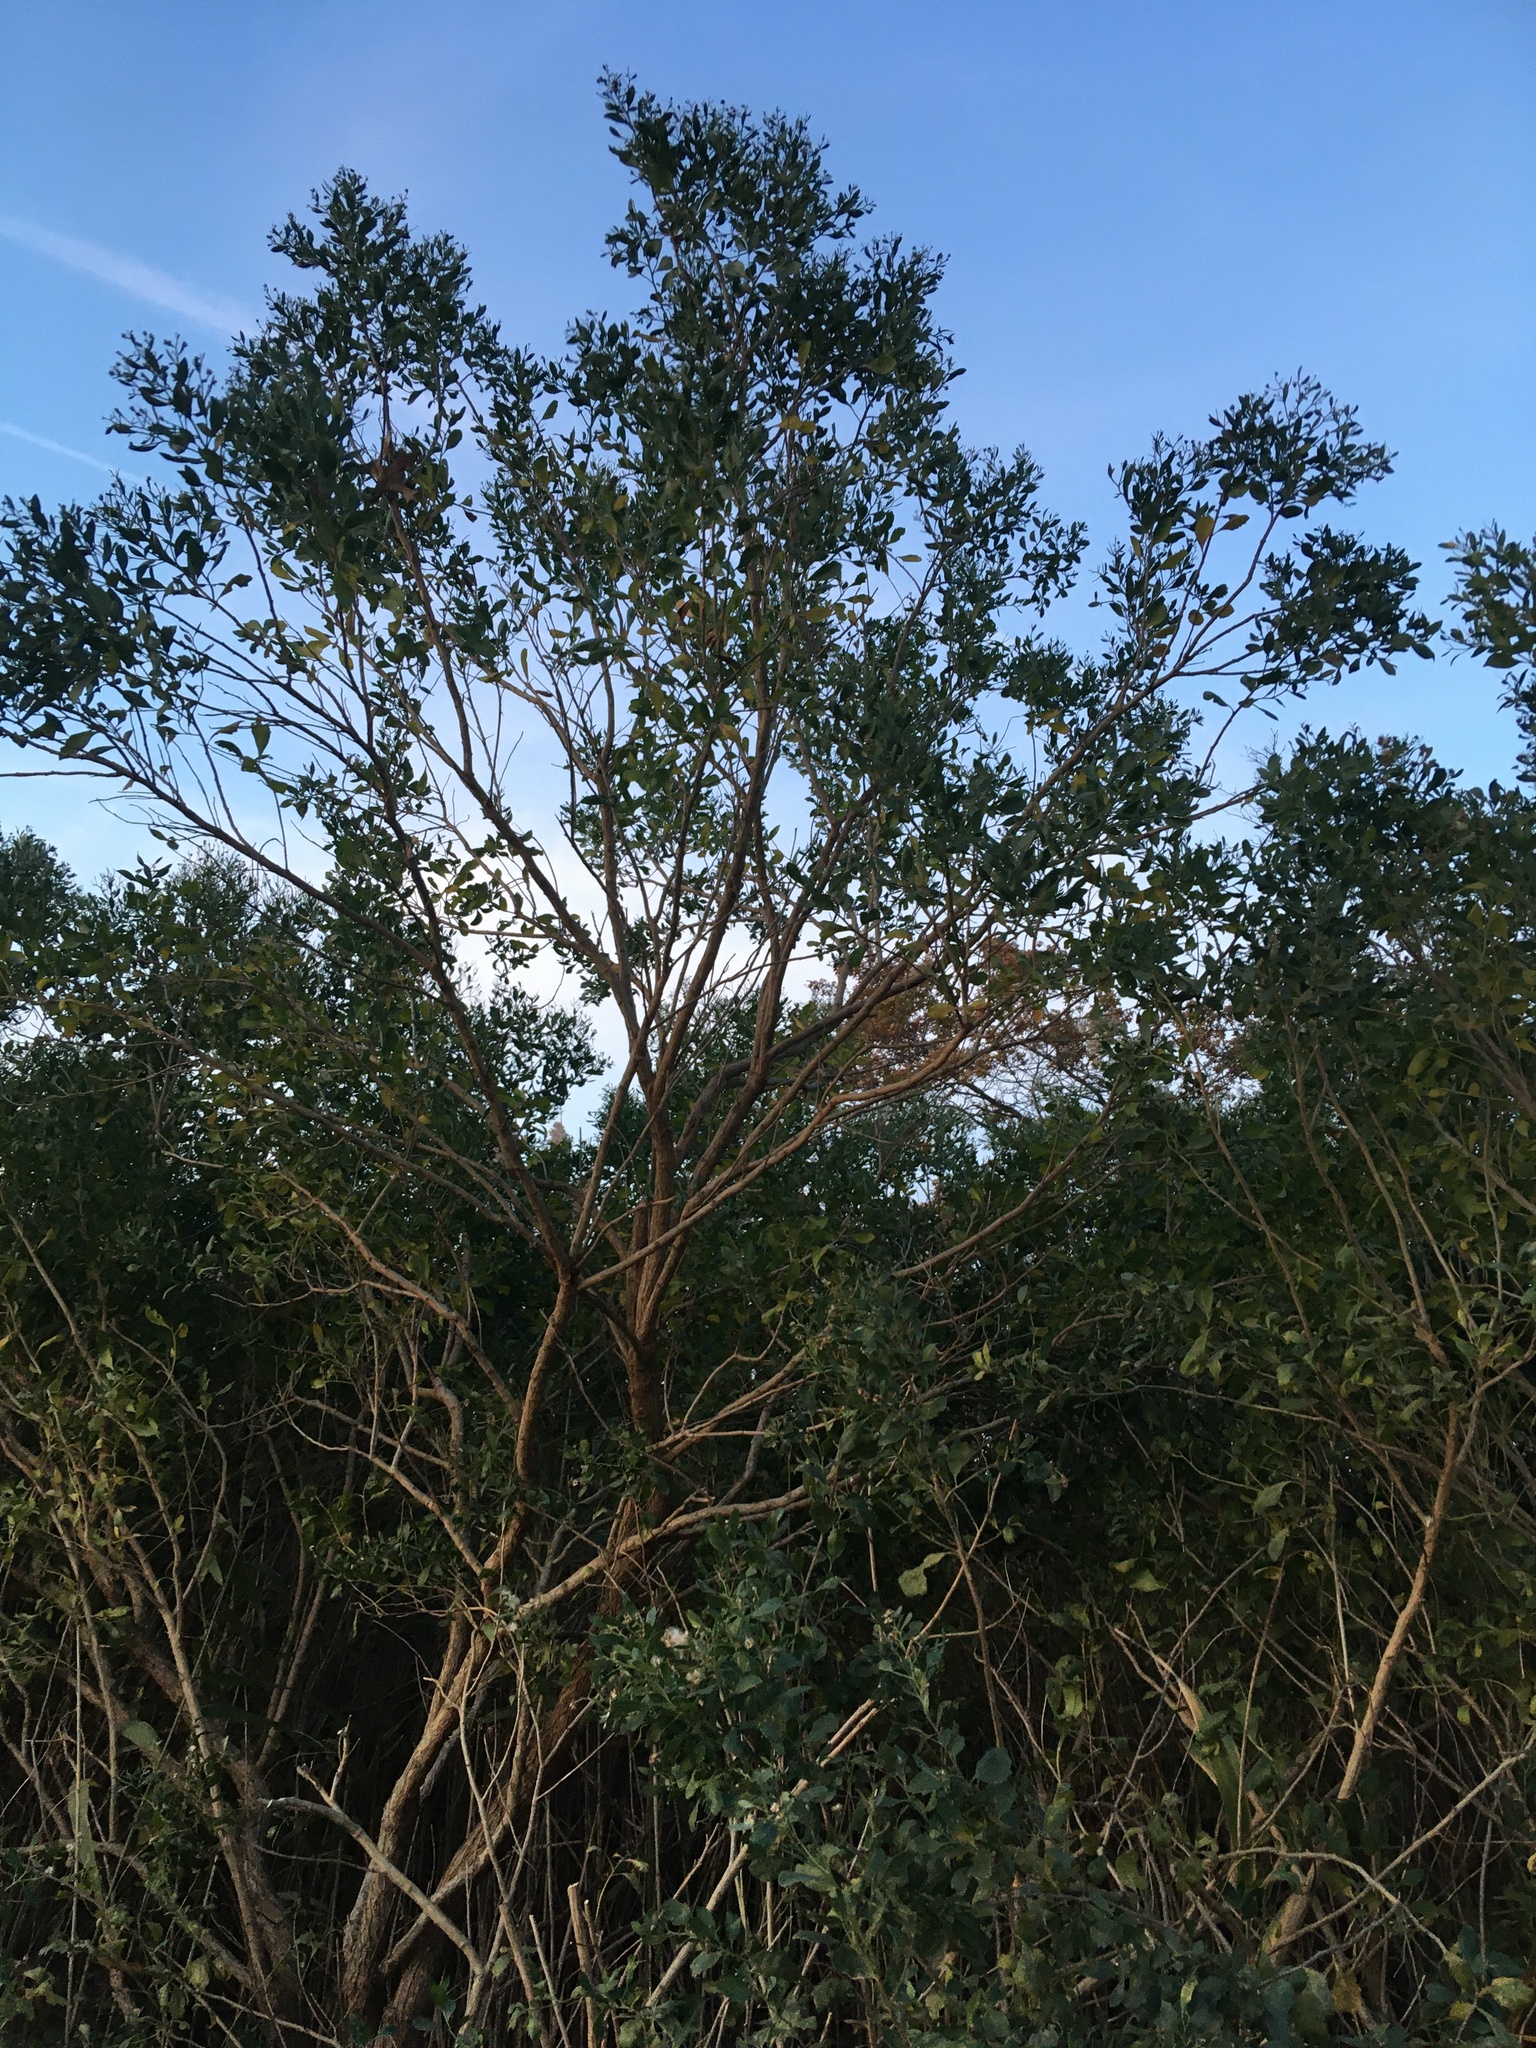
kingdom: Plantae
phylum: Tracheophyta
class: Magnoliopsida
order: Asterales
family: Asteraceae
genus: Baccharis
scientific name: Baccharis halimifolia
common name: Eastern baccharis
